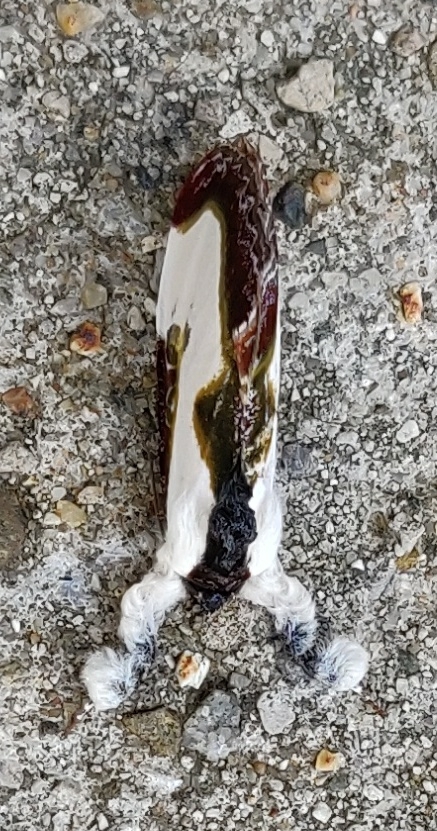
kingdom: Animalia
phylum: Arthropoda
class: Insecta
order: Lepidoptera
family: Noctuidae
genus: Eudryas
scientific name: Eudryas grata
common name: Beautiful wood-nymph
